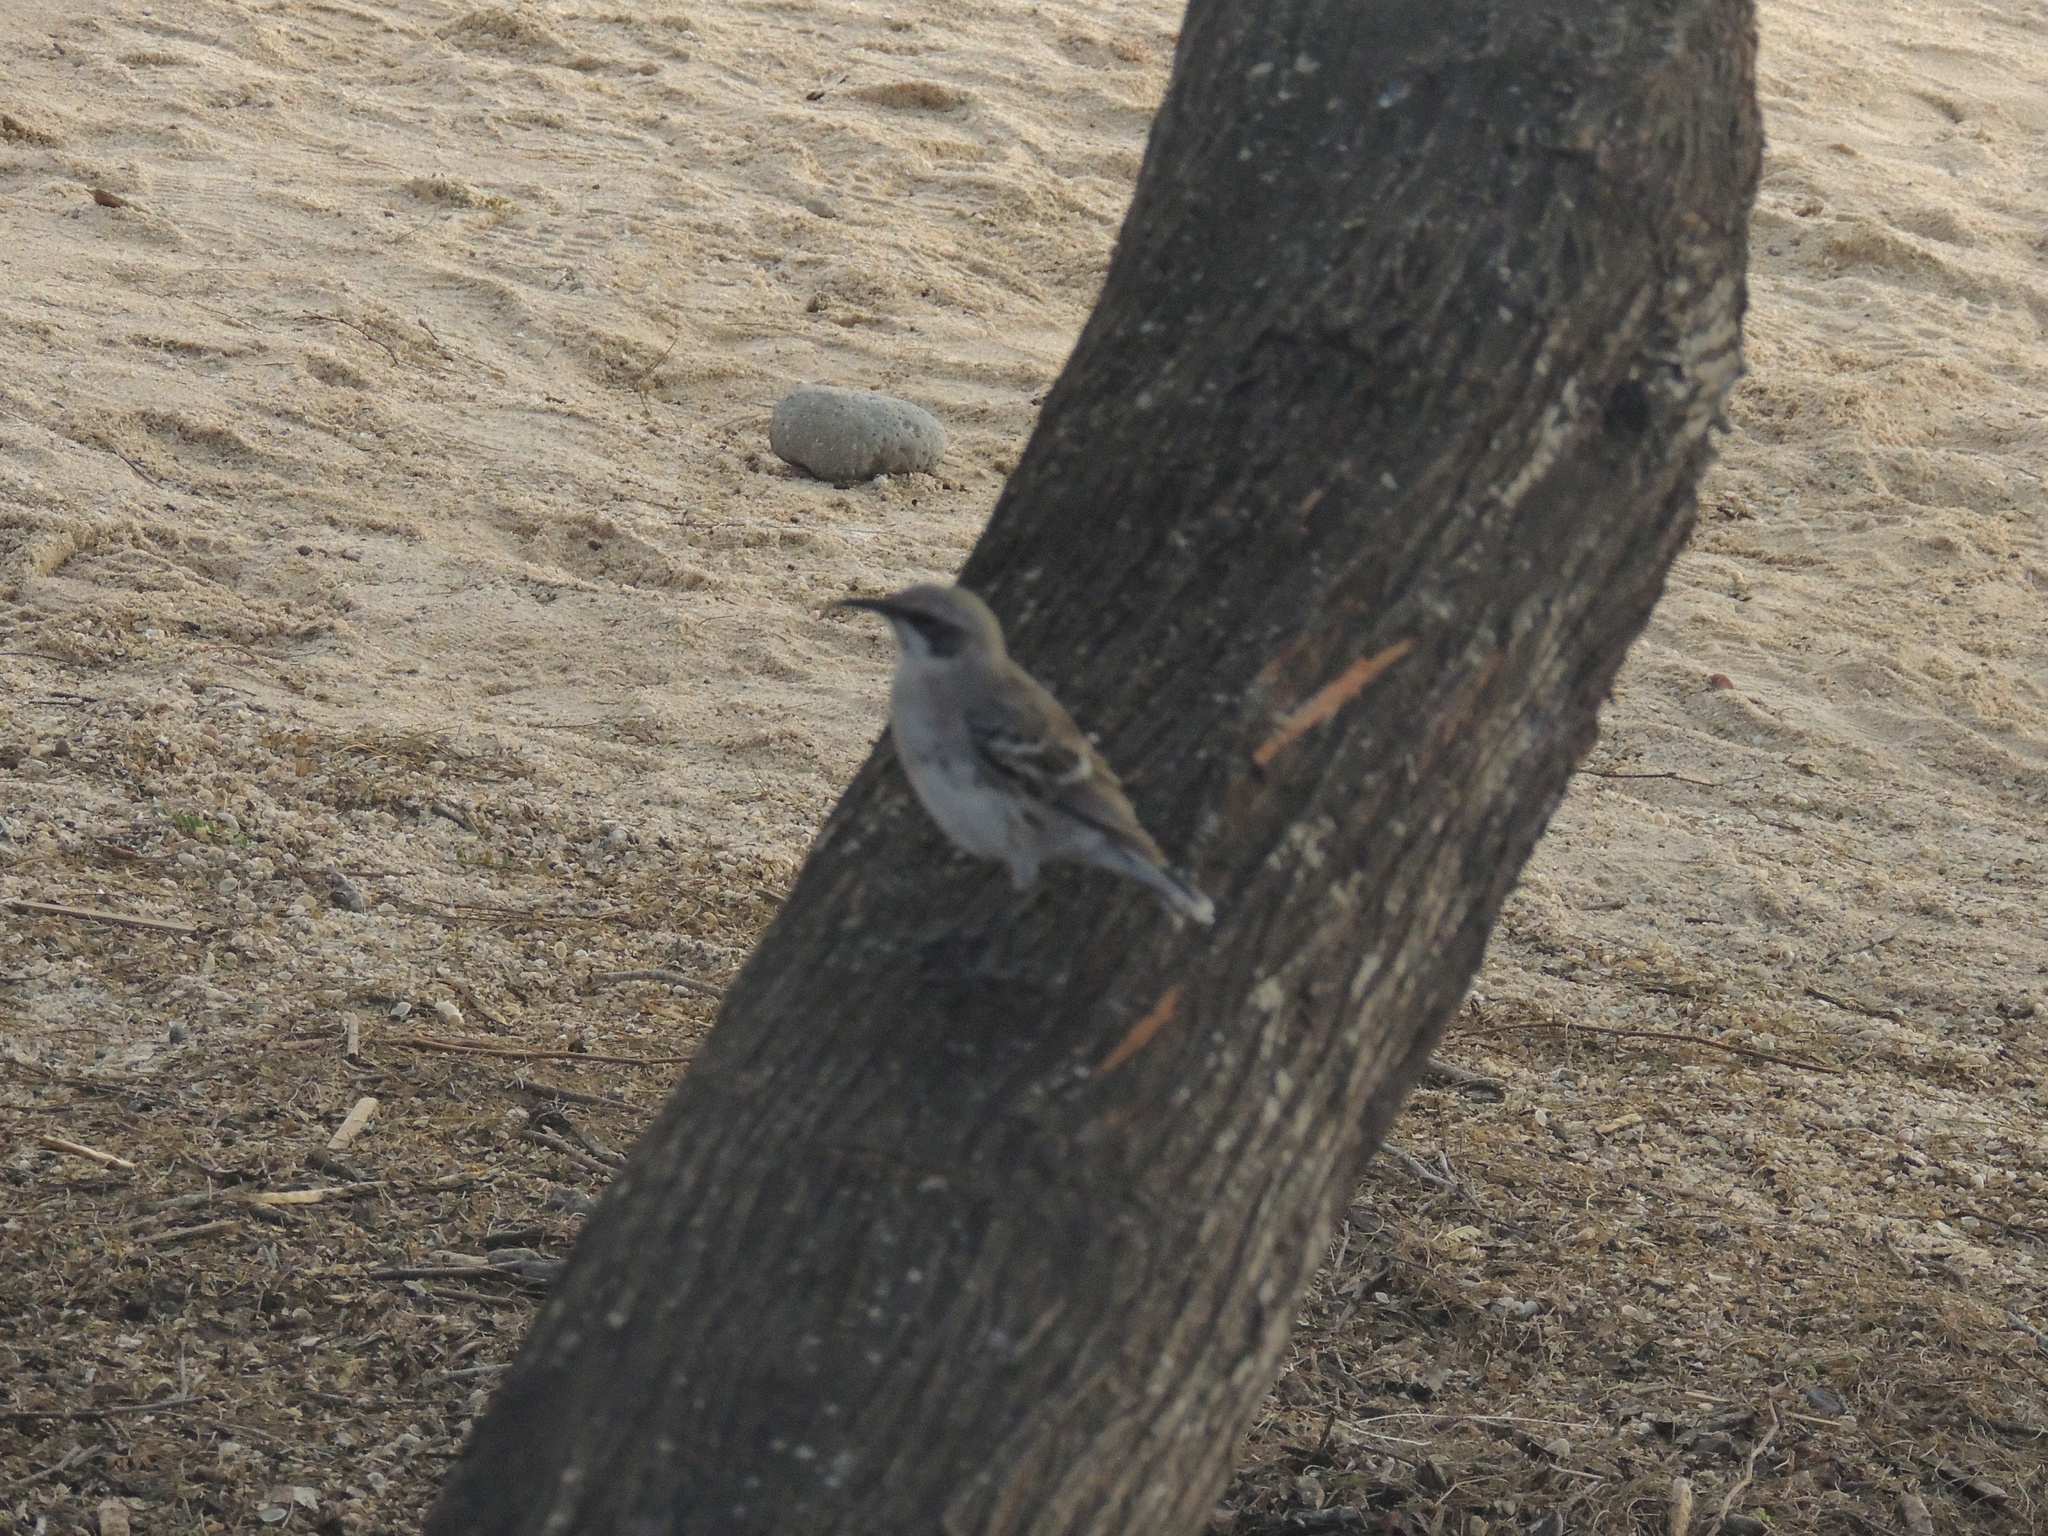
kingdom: Animalia
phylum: Chordata
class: Aves
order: Passeriformes
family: Mimidae
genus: Mimus
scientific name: Mimus melanotis
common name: San cristobal mockingbird
